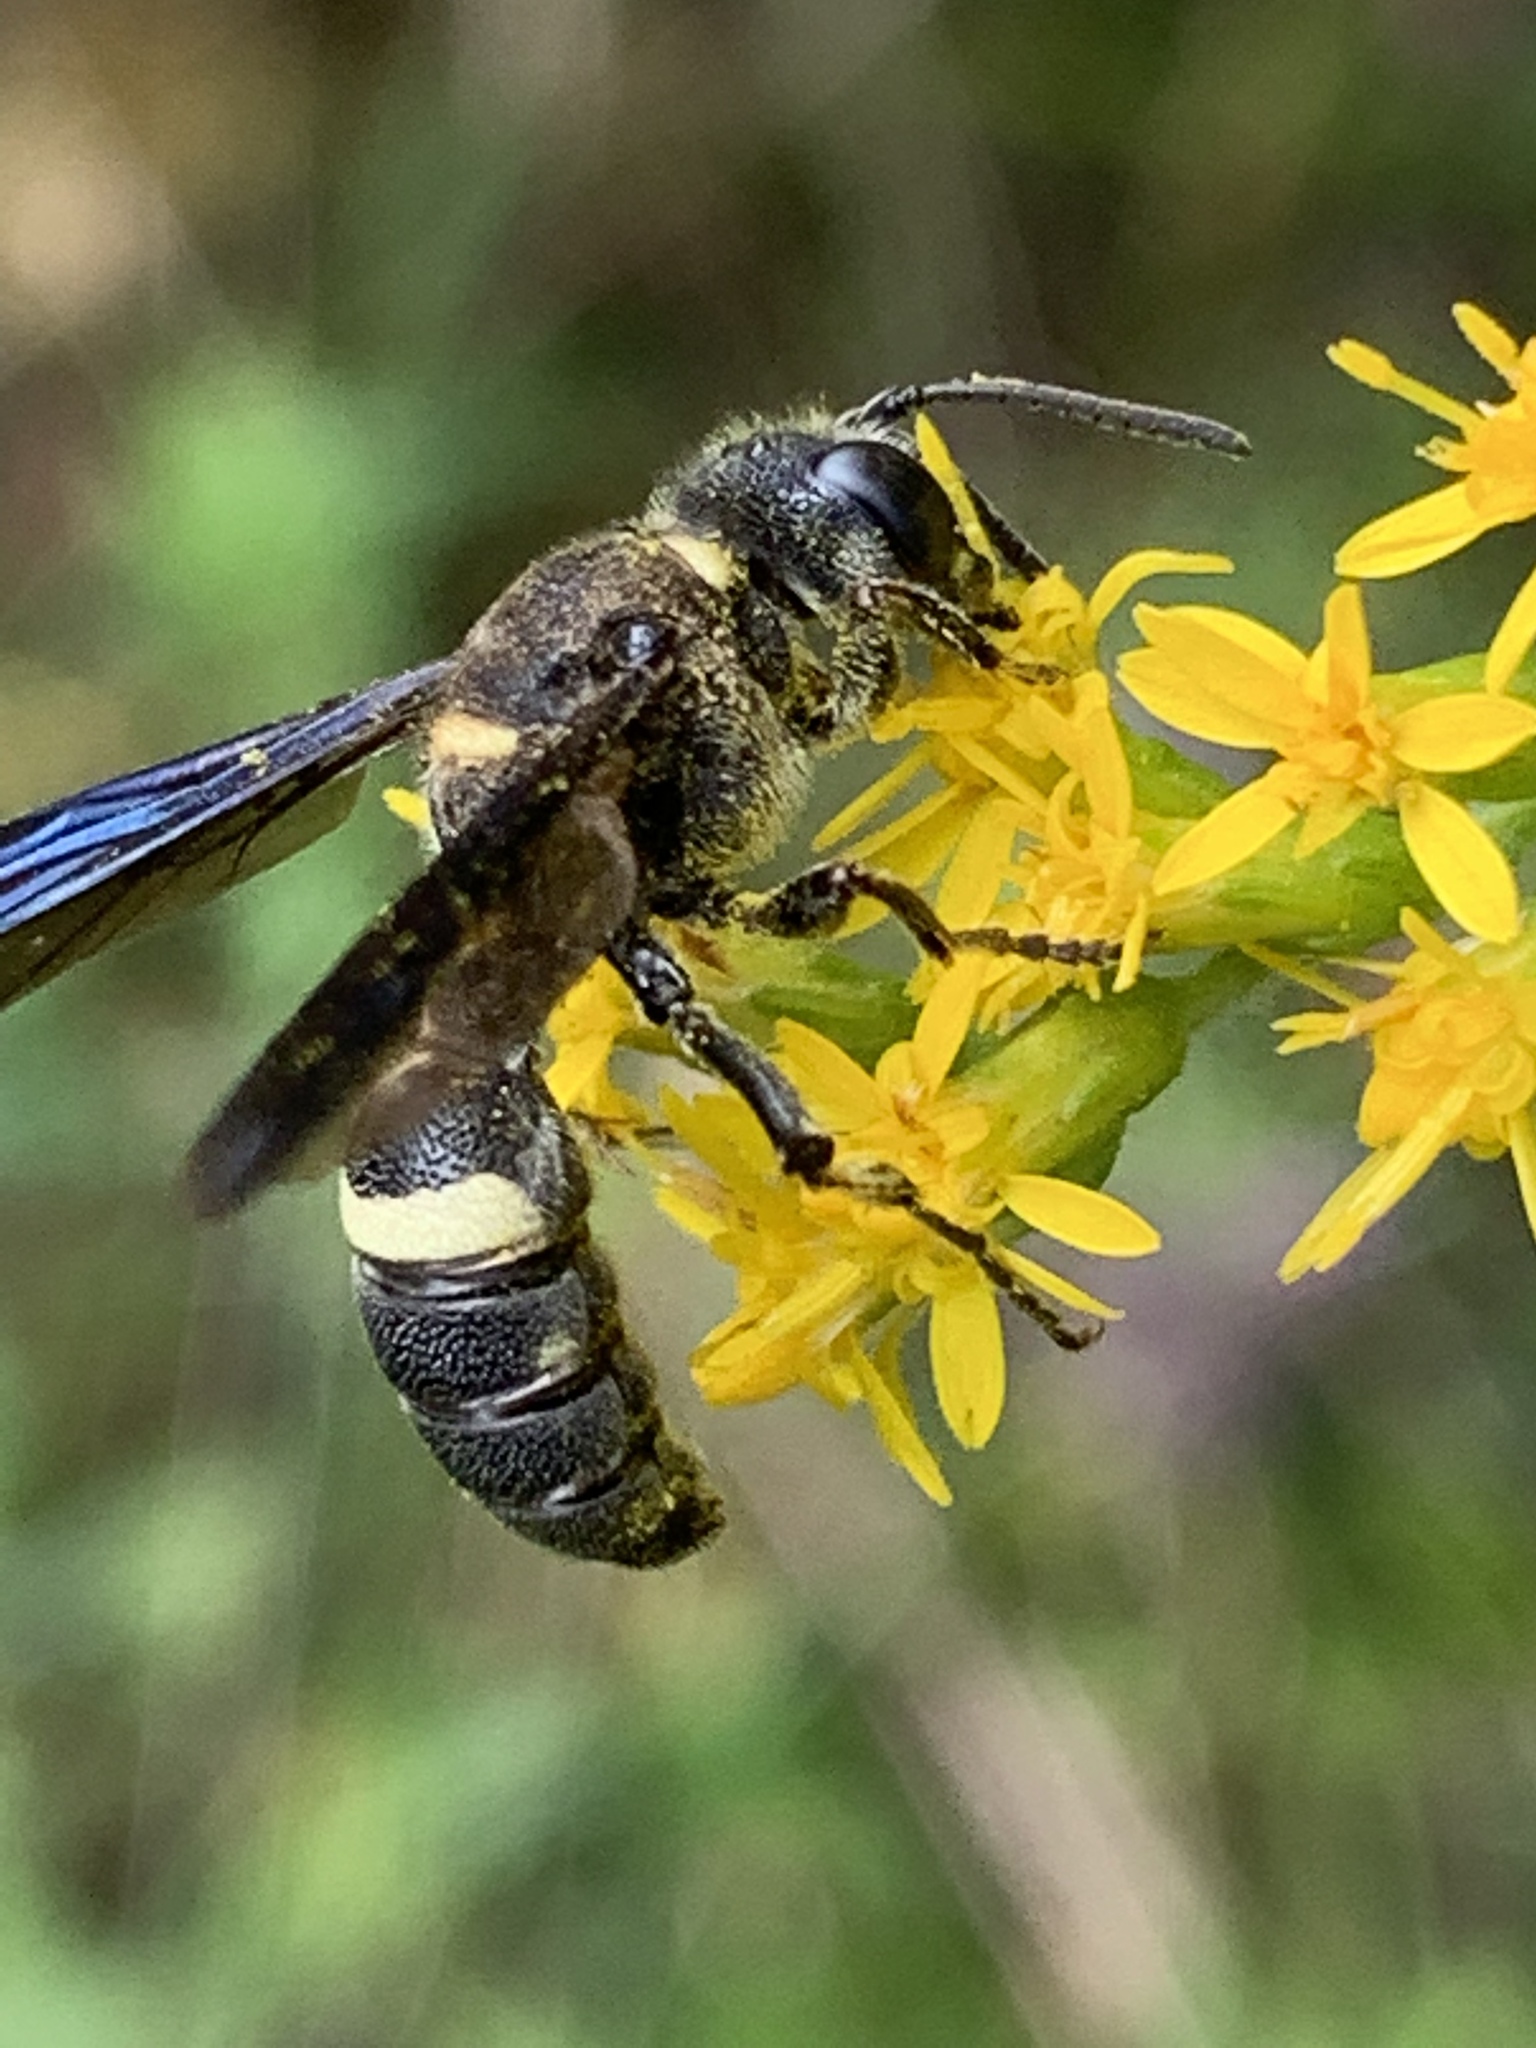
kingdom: Animalia
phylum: Arthropoda
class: Insecta
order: Hymenoptera
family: Crabronidae
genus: Cerceris
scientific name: Cerceris fumipennis
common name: Smokey-winged beetle bandit wasp
